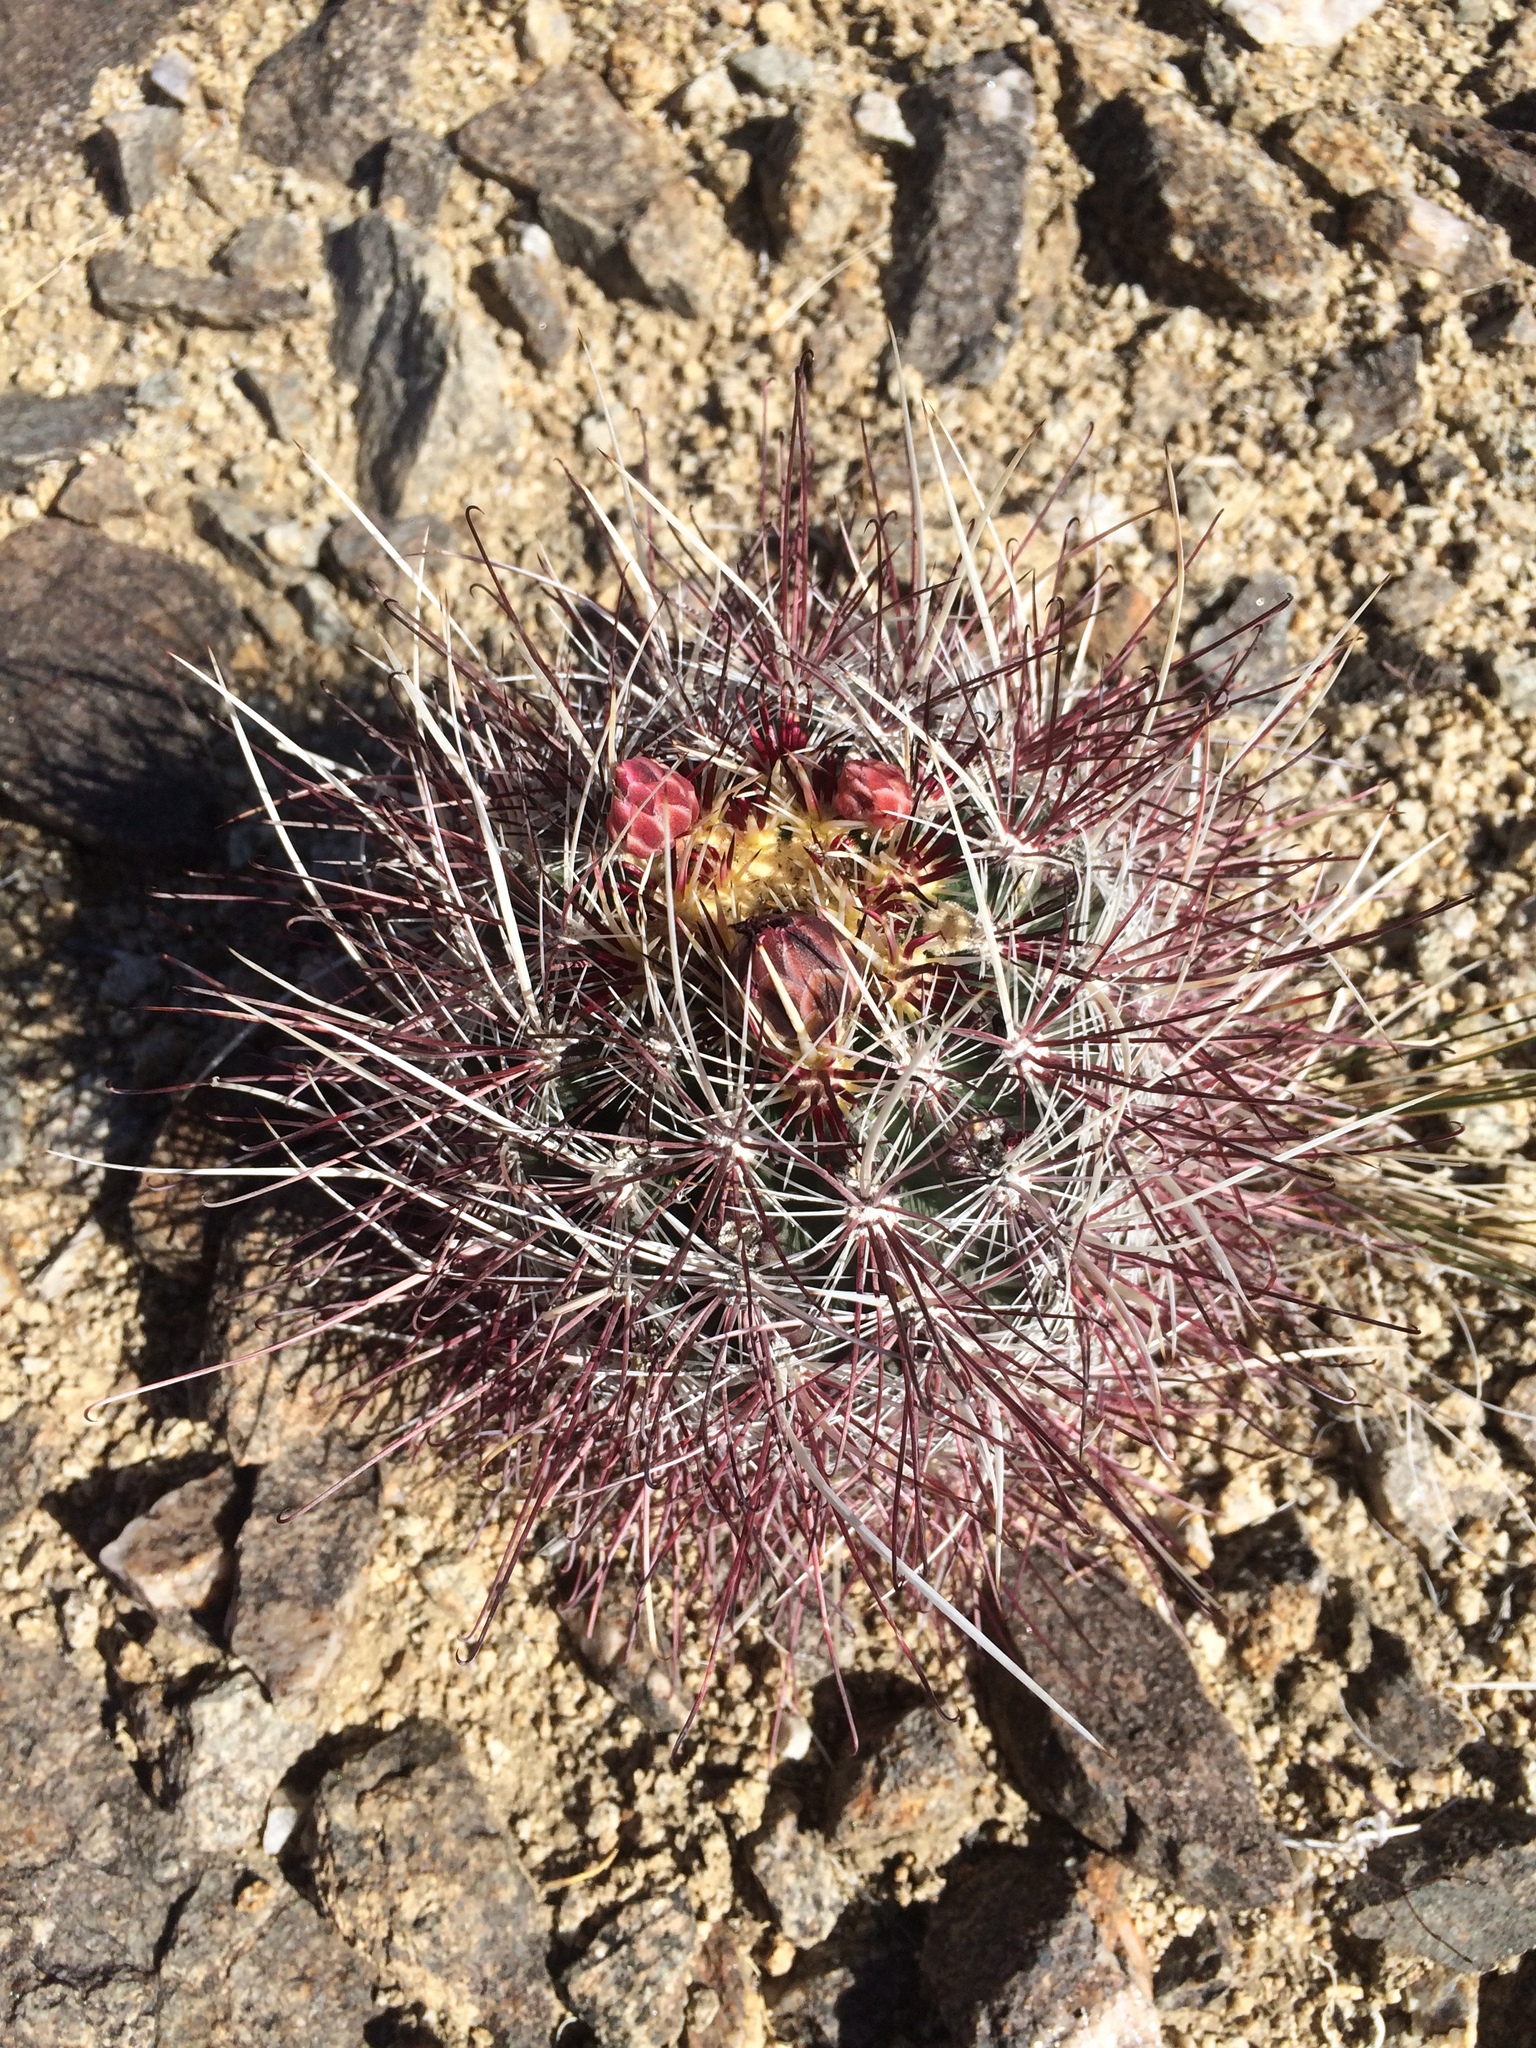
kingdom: Plantae
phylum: Tracheophyta
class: Magnoliopsida
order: Caryophyllales
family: Cactaceae
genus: Sclerocactus
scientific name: Sclerocactus polyancistrus
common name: Mohave fishhook cactus
